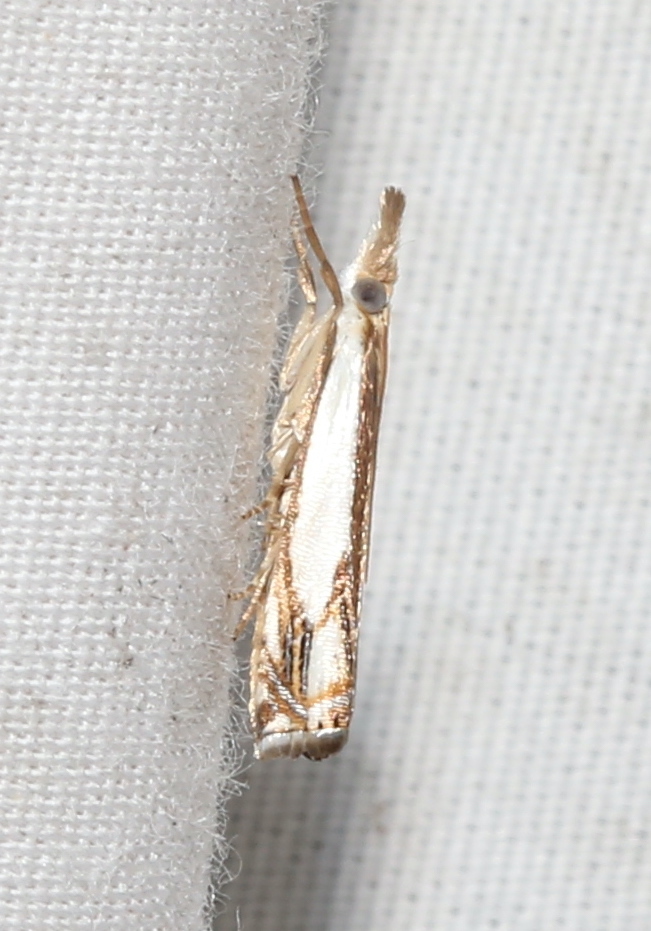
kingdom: Animalia
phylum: Arthropoda
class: Insecta
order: Lepidoptera
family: Crambidae
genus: Crambus
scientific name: Crambus agitatellus
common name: Double-banded grass-veneer
